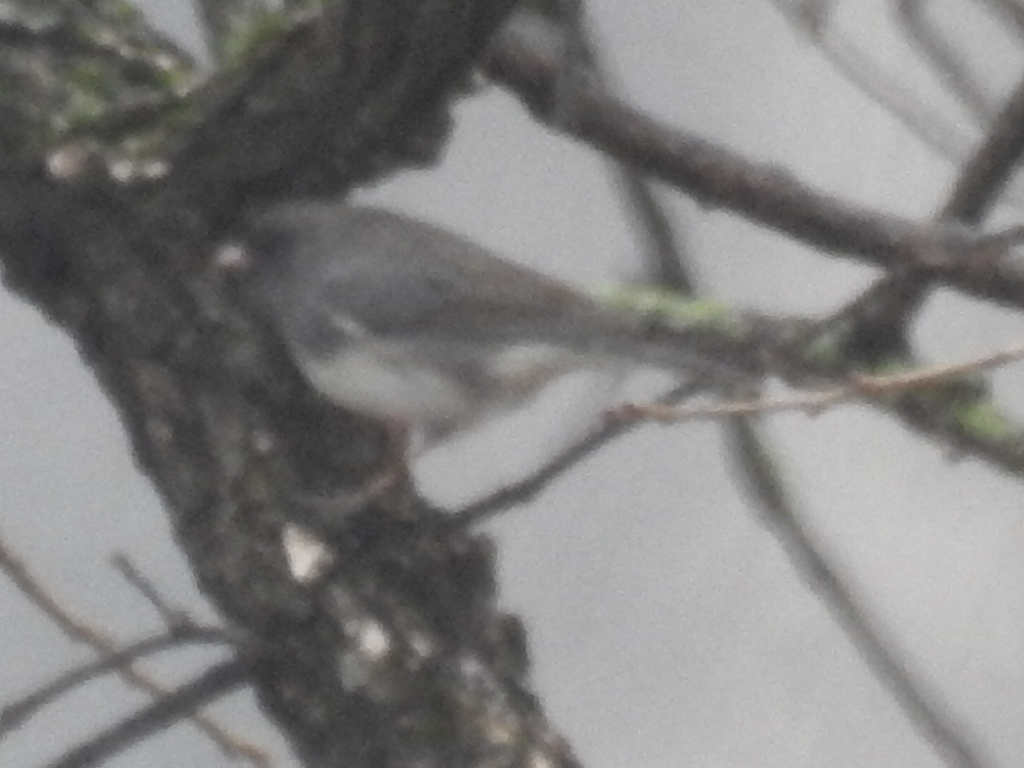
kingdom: Animalia
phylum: Chordata
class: Aves
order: Passeriformes
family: Passerellidae
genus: Junco
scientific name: Junco hyemalis
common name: Dark-eyed junco
